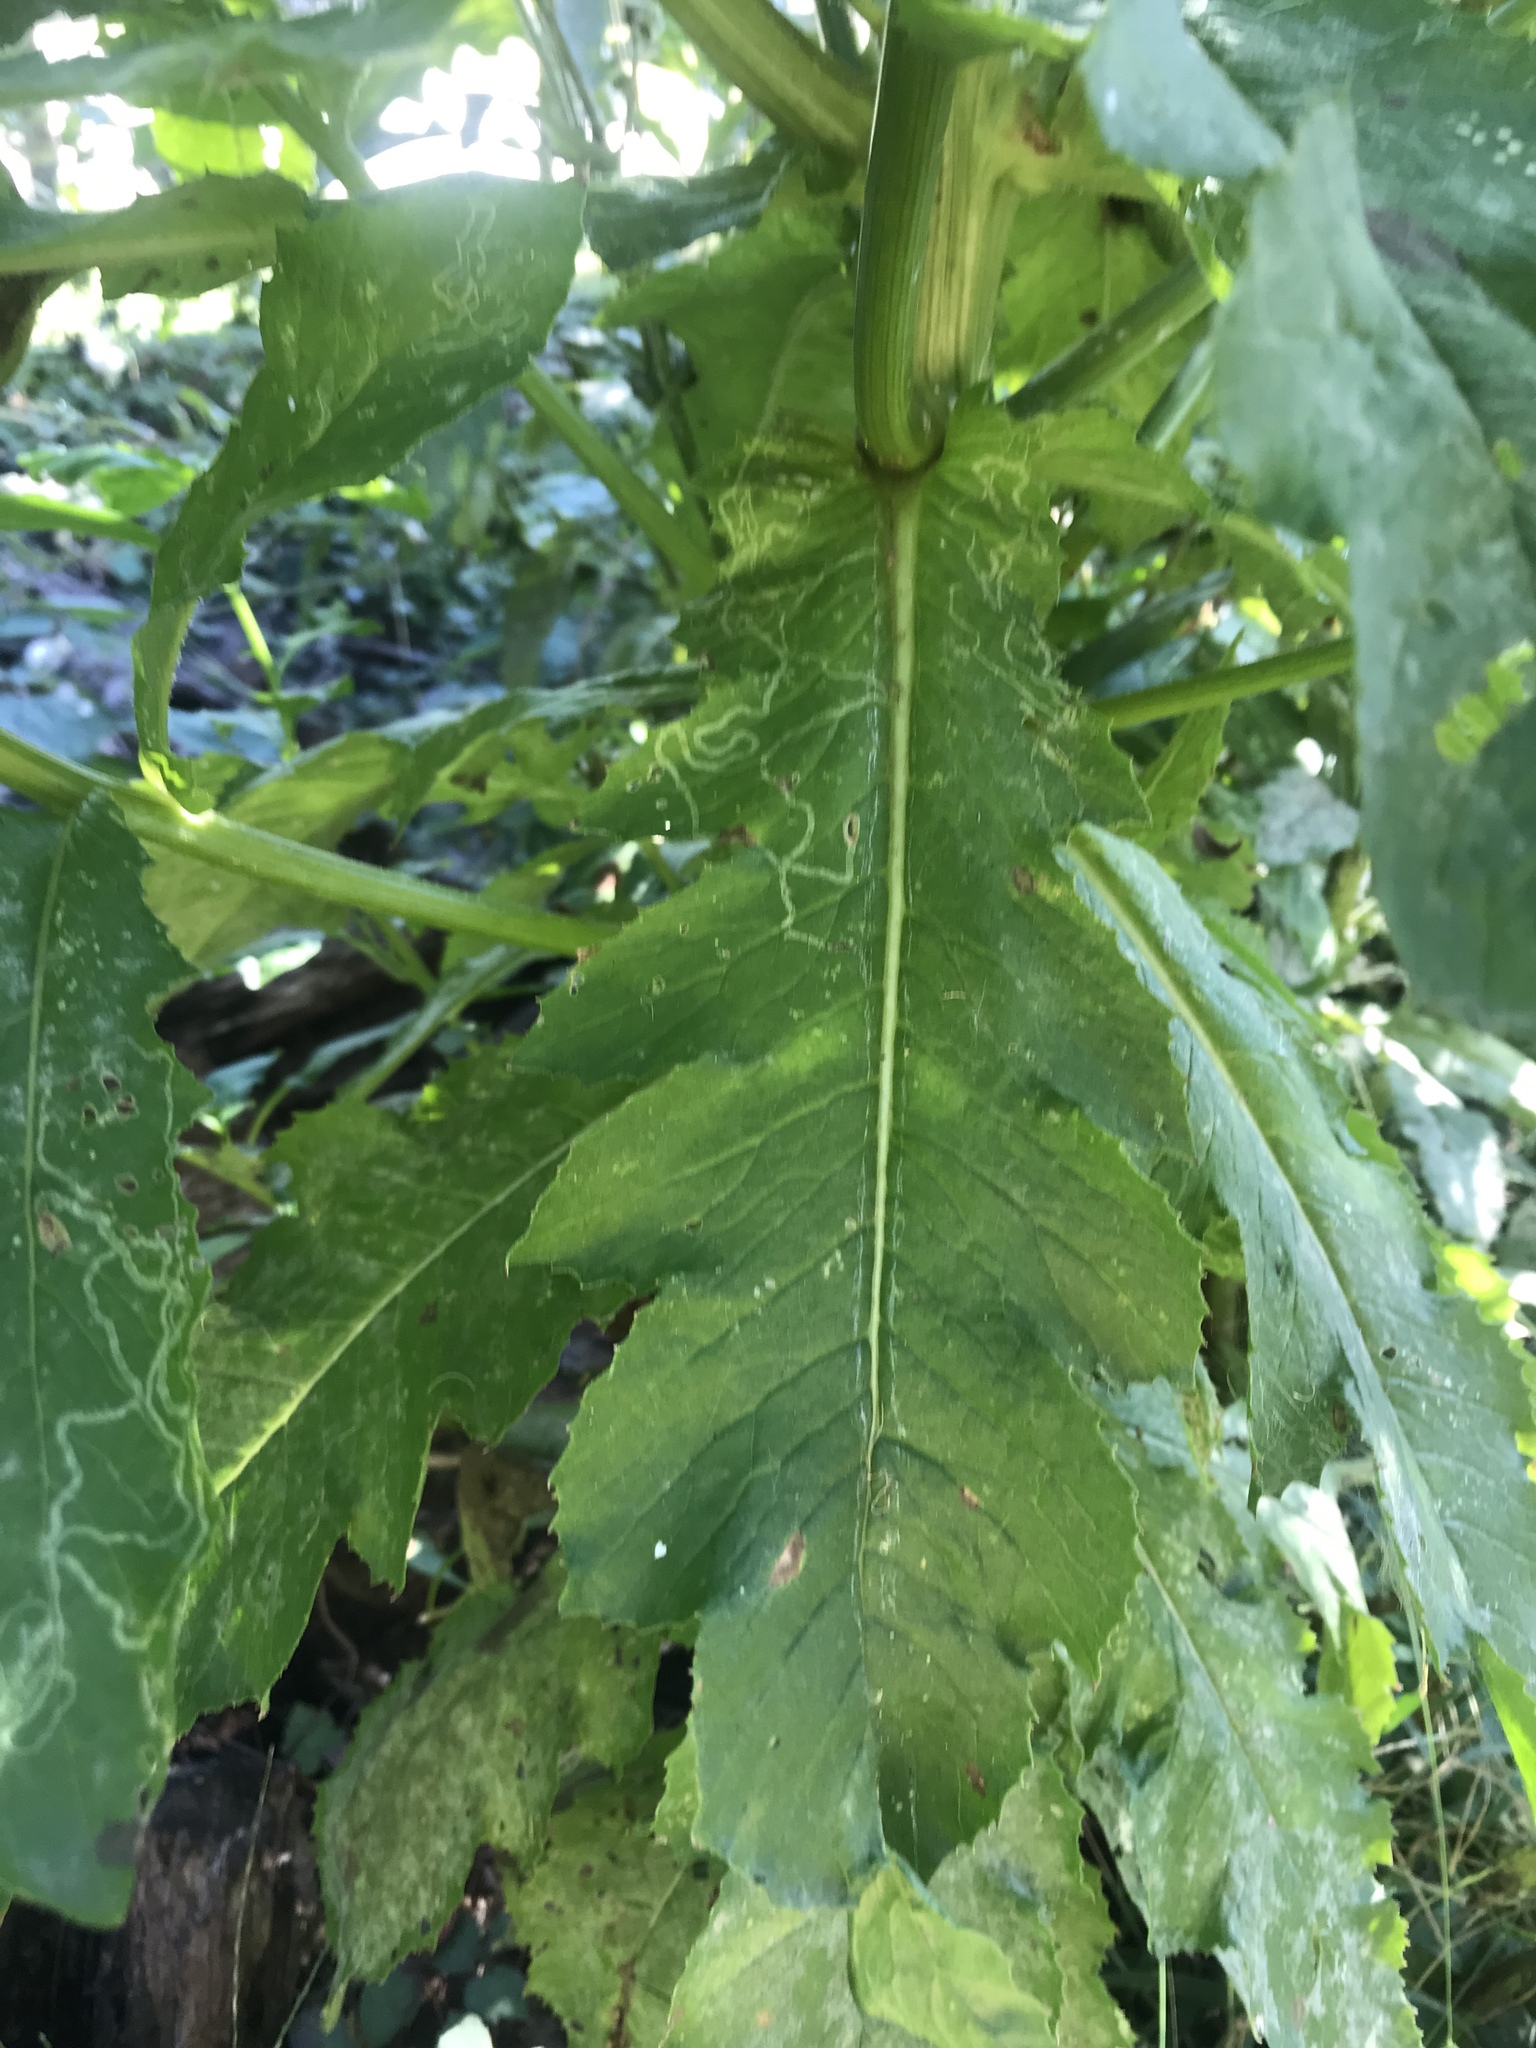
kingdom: Plantae
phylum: Tracheophyta
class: Magnoliopsida
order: Asterales
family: Asteraceae
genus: Erechtites
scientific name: Erechtites hieraciifolius
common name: American burnweed
